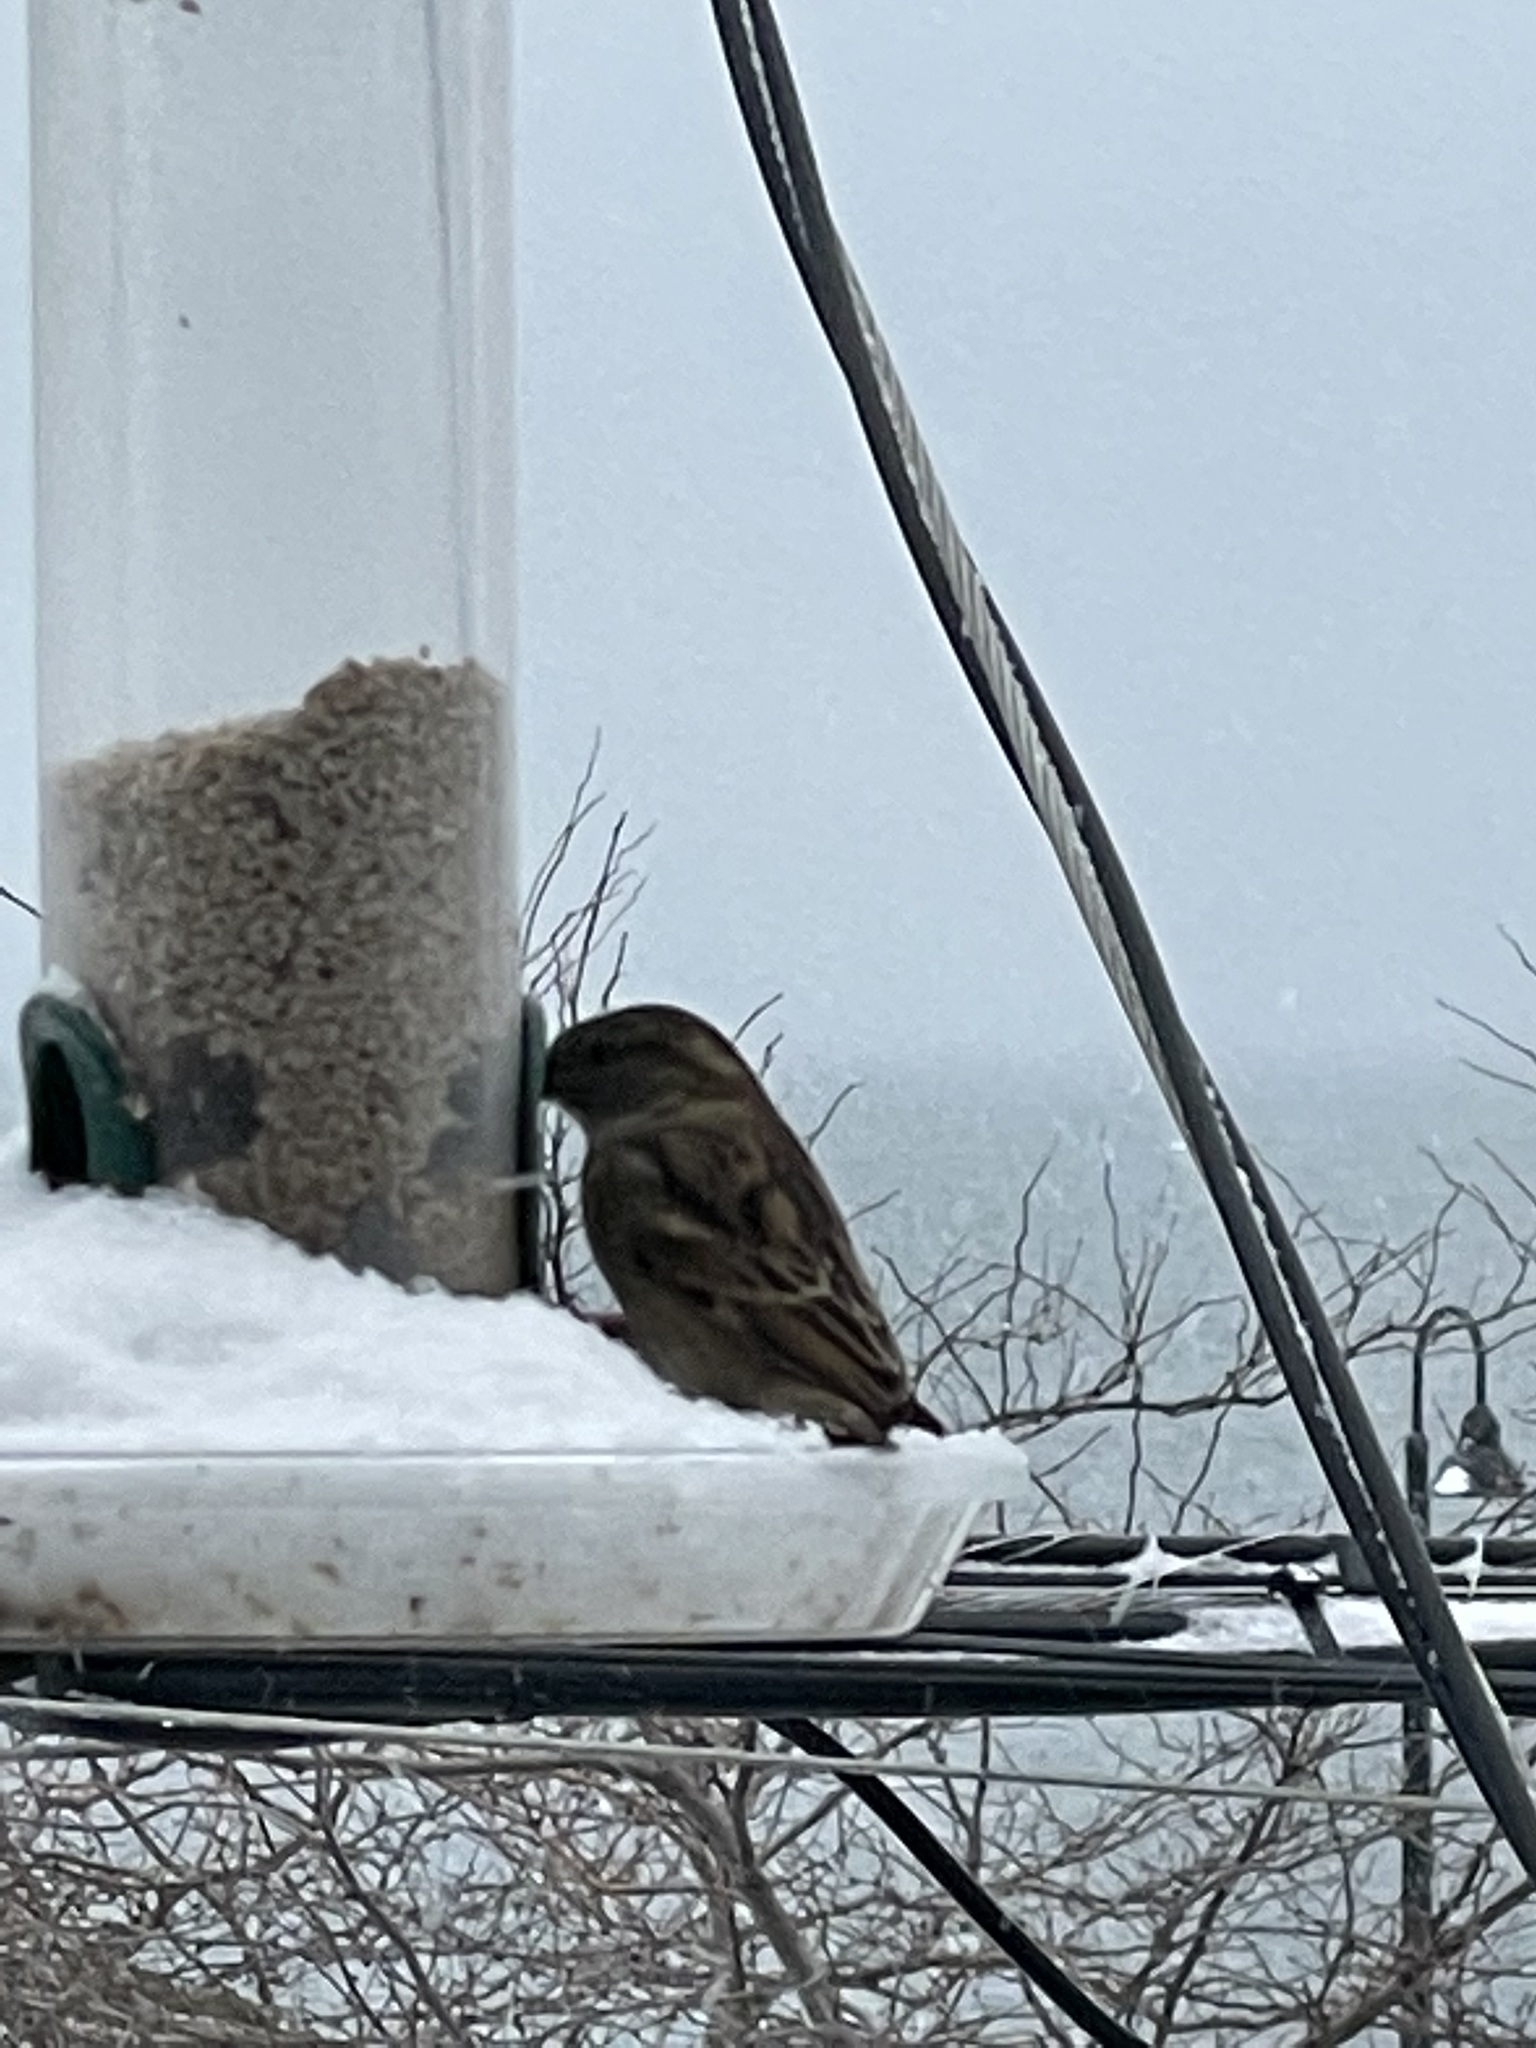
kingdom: Animalia
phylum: Chordata
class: Aves
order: Passeriformes
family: Passeridae
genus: Passer
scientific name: Passer domesticus
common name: House sparrow
